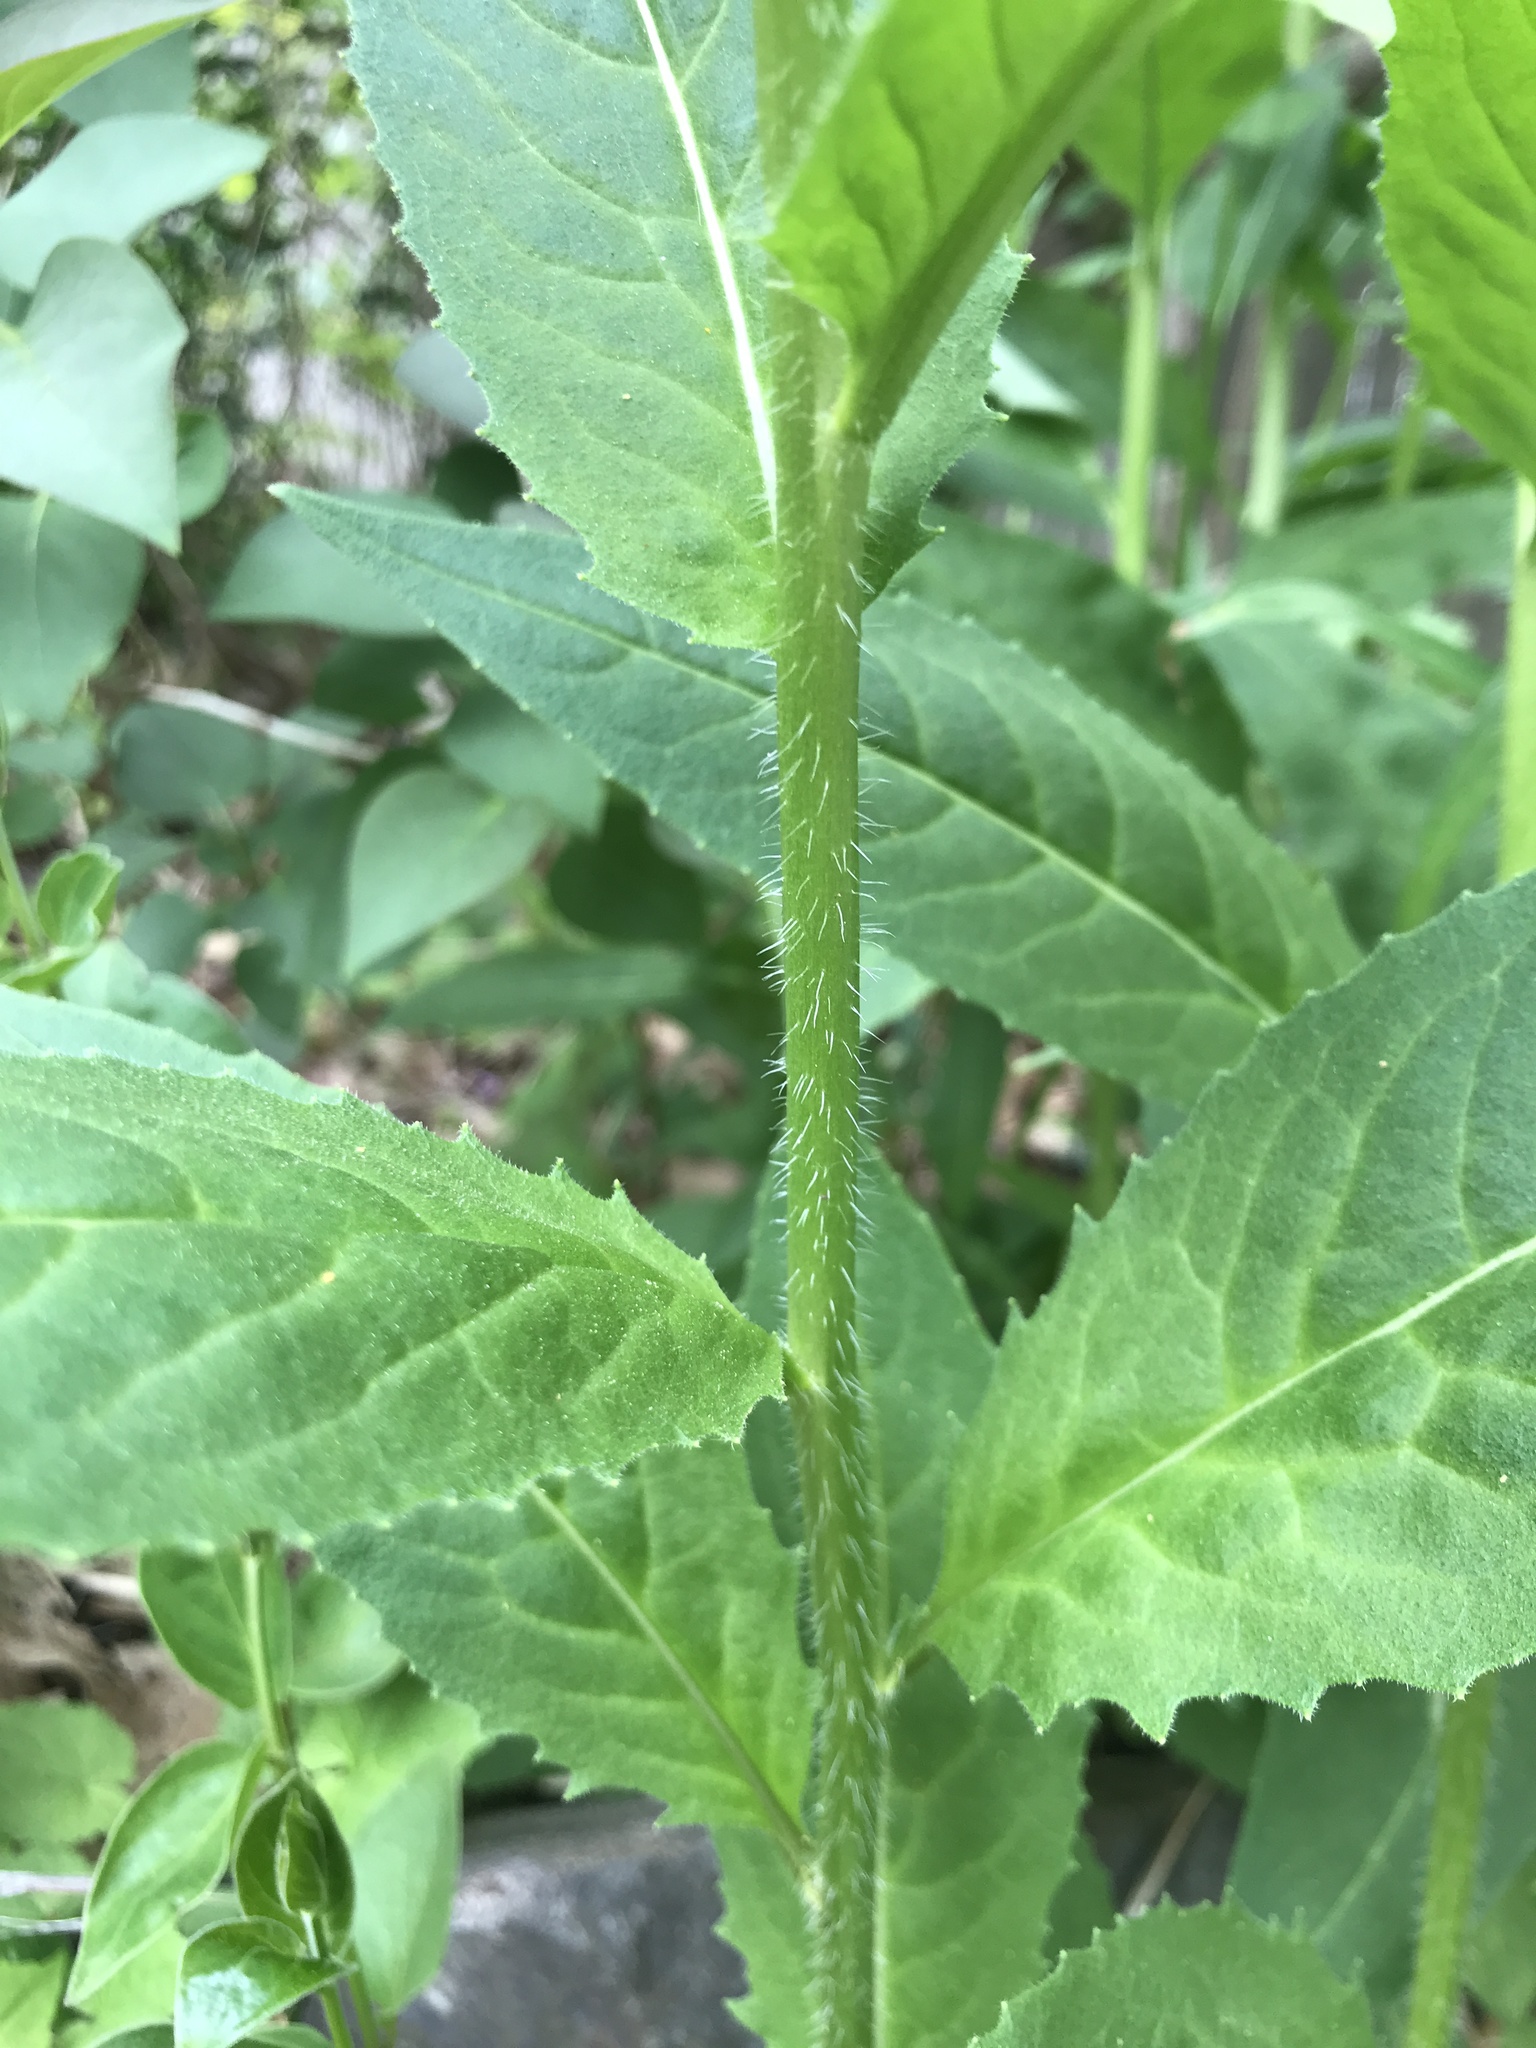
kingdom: Plantae
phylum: Tracheophyta
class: Magnoliopsida
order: Brassicales
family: Brassicaceae
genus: Hesperis
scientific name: Hesperis matronalis
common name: Dame's-violet
